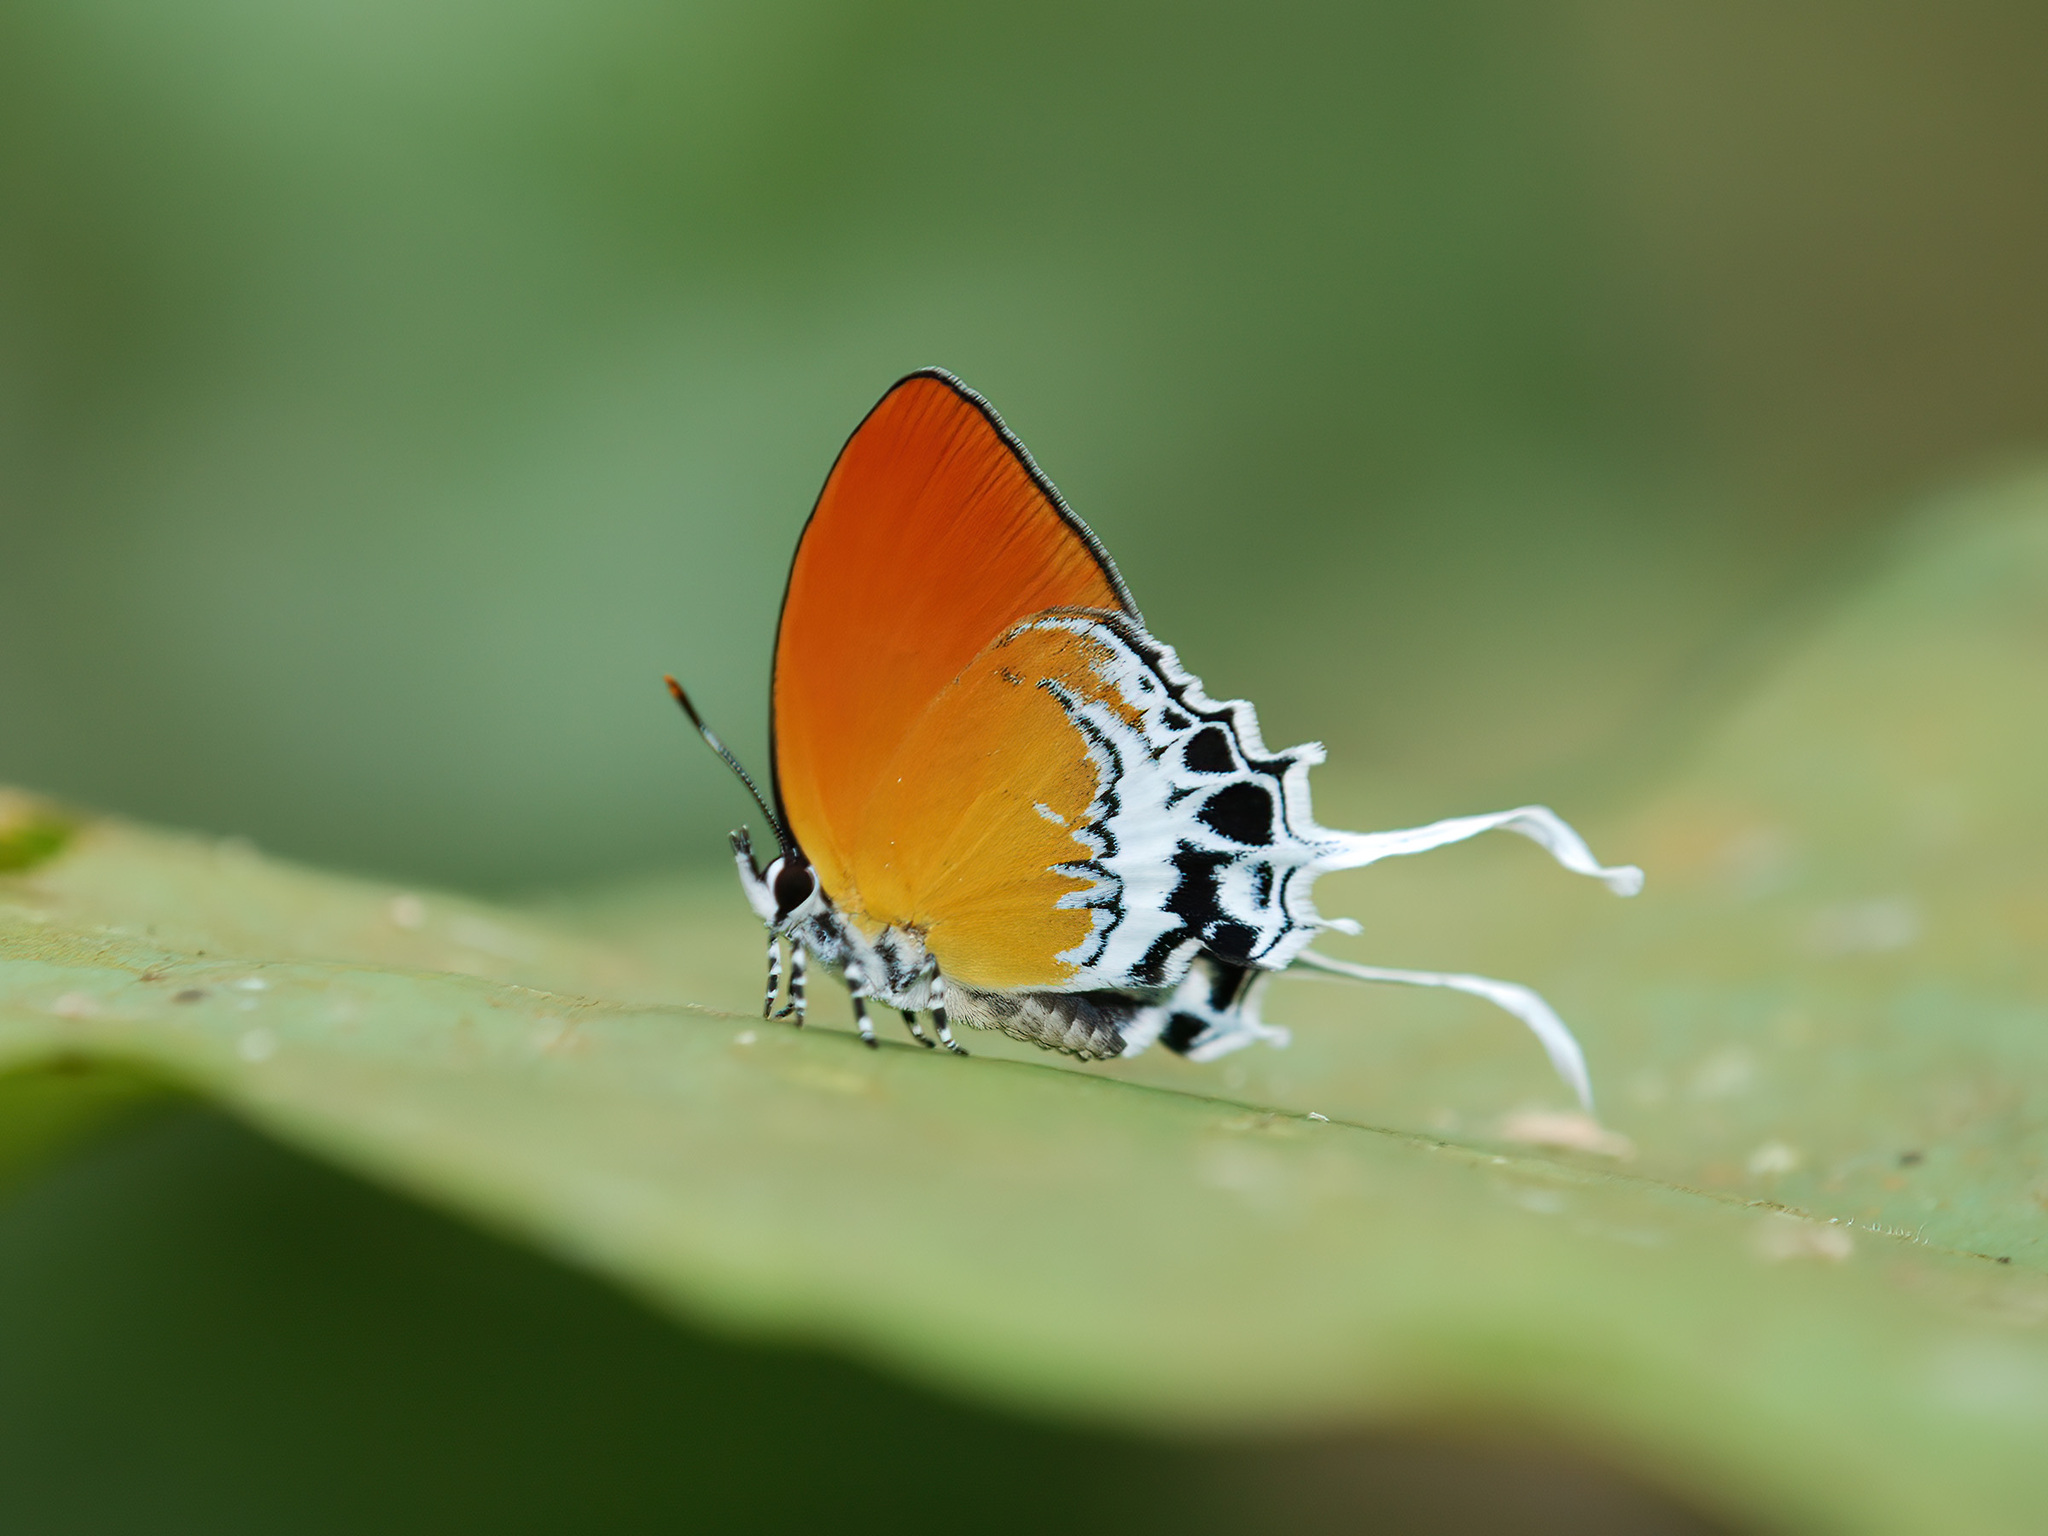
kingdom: Animalia
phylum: Arthropoda
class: Insecta
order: Lepidoptera
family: Lycaenidae
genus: Eooxylides
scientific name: Eooxylides tharis
